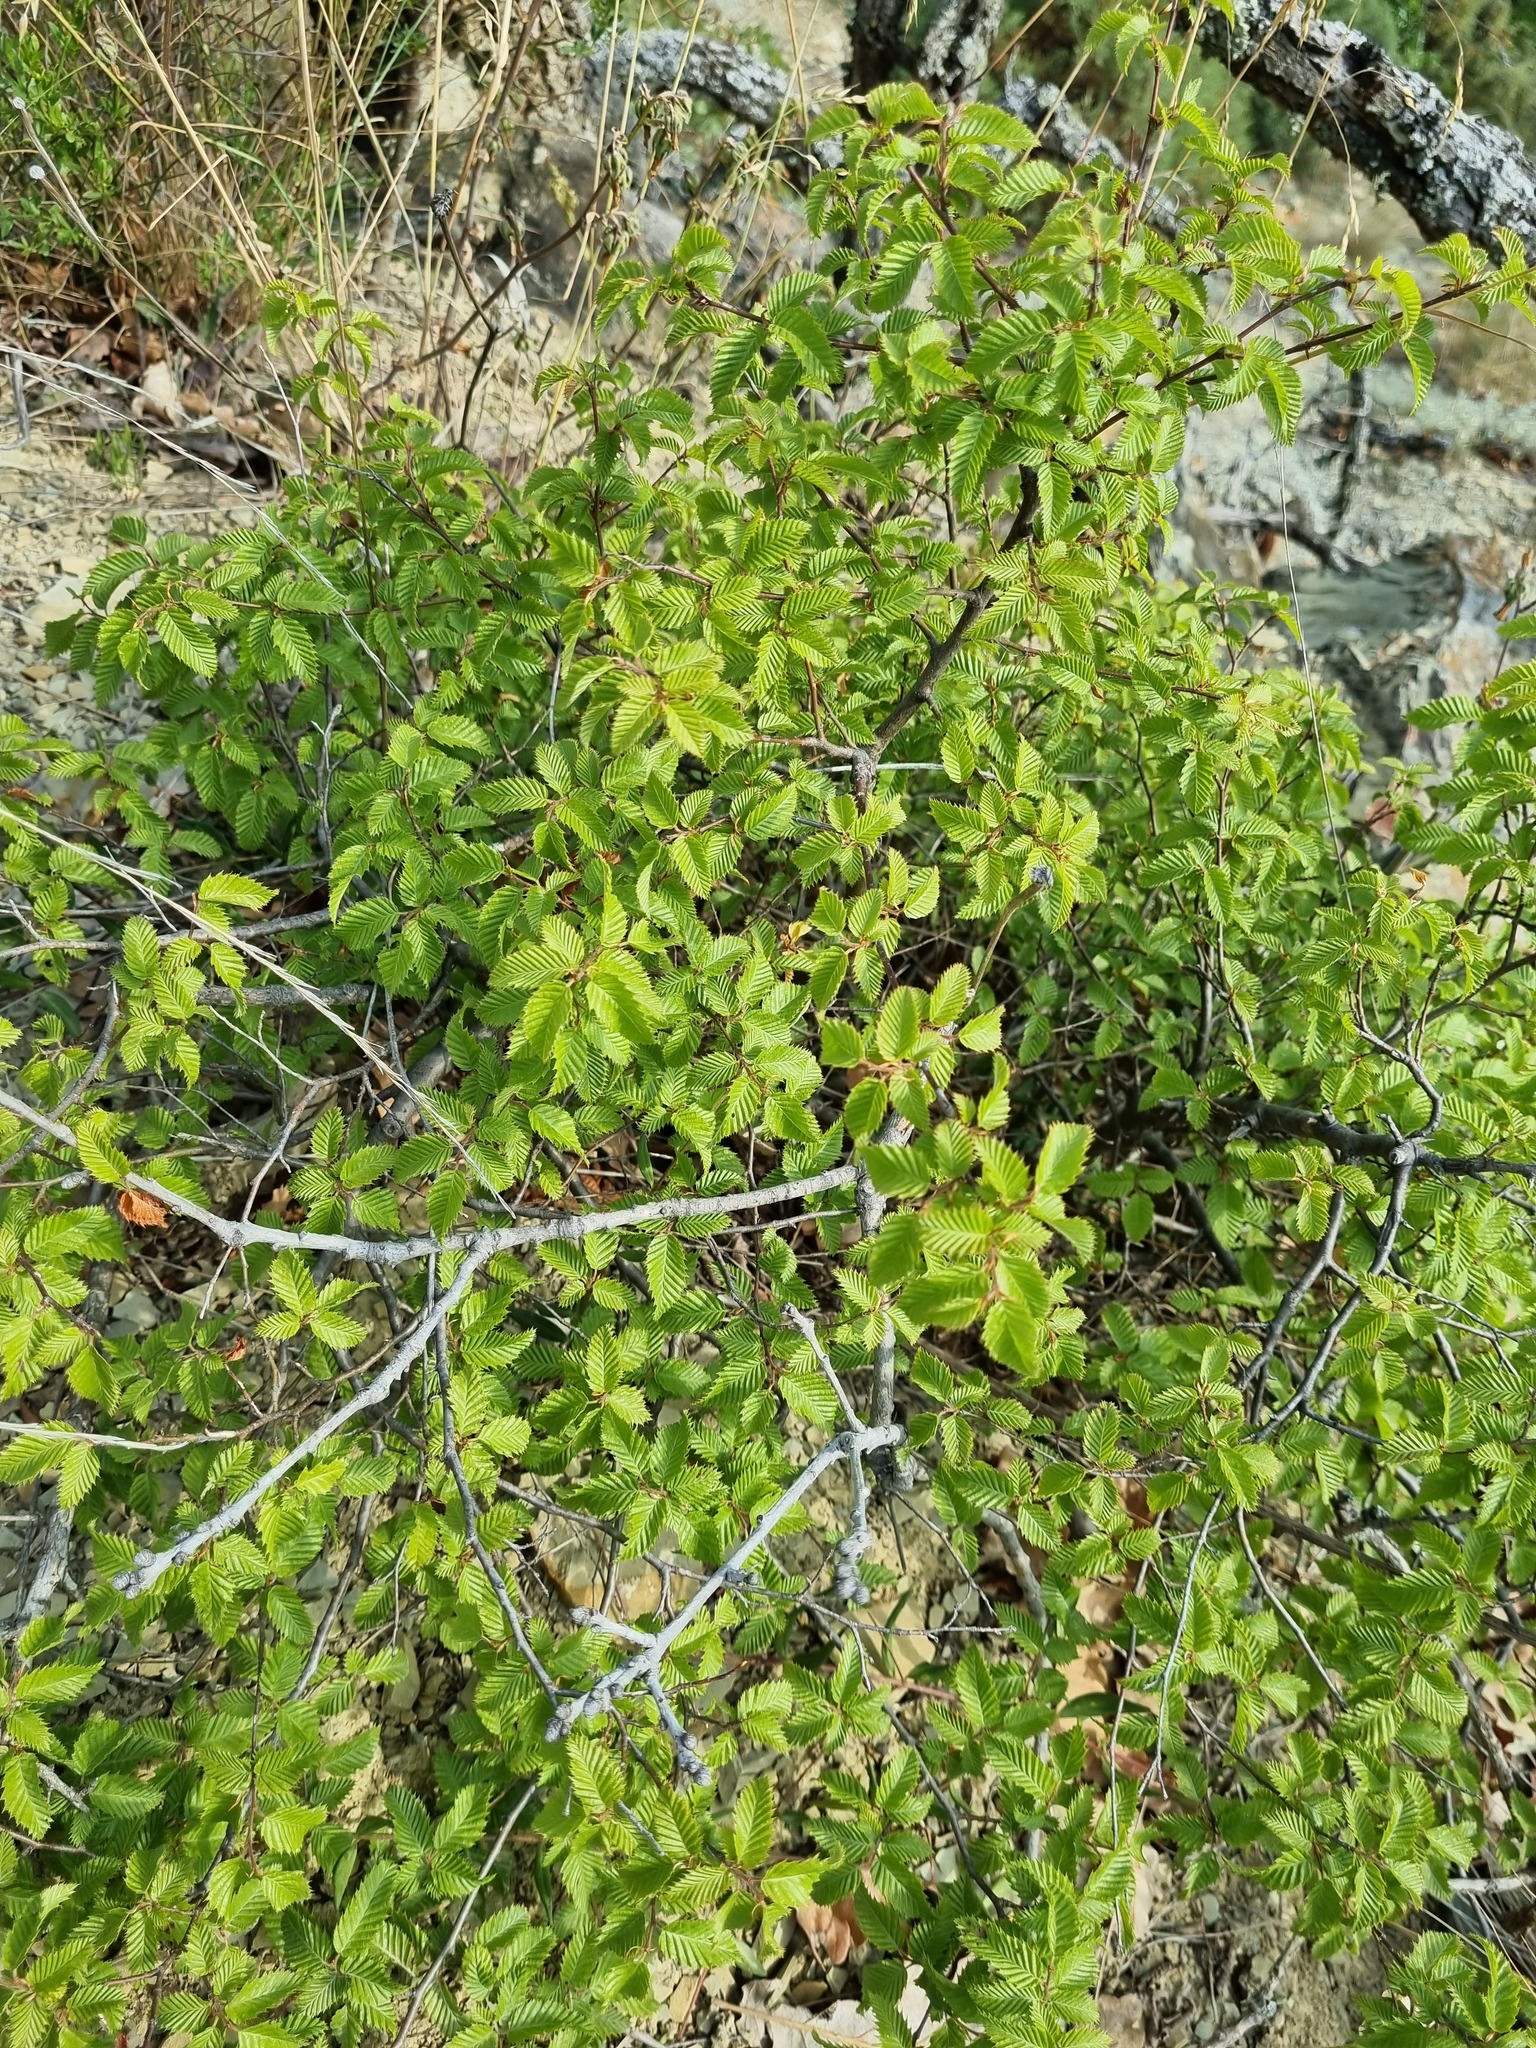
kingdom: Plantae
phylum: Tracheophyta
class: Magnoliopsida
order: Fagales
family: Betulaceae
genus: Carpinus
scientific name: Carpinus orientalis
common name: Eastern hornbeam
